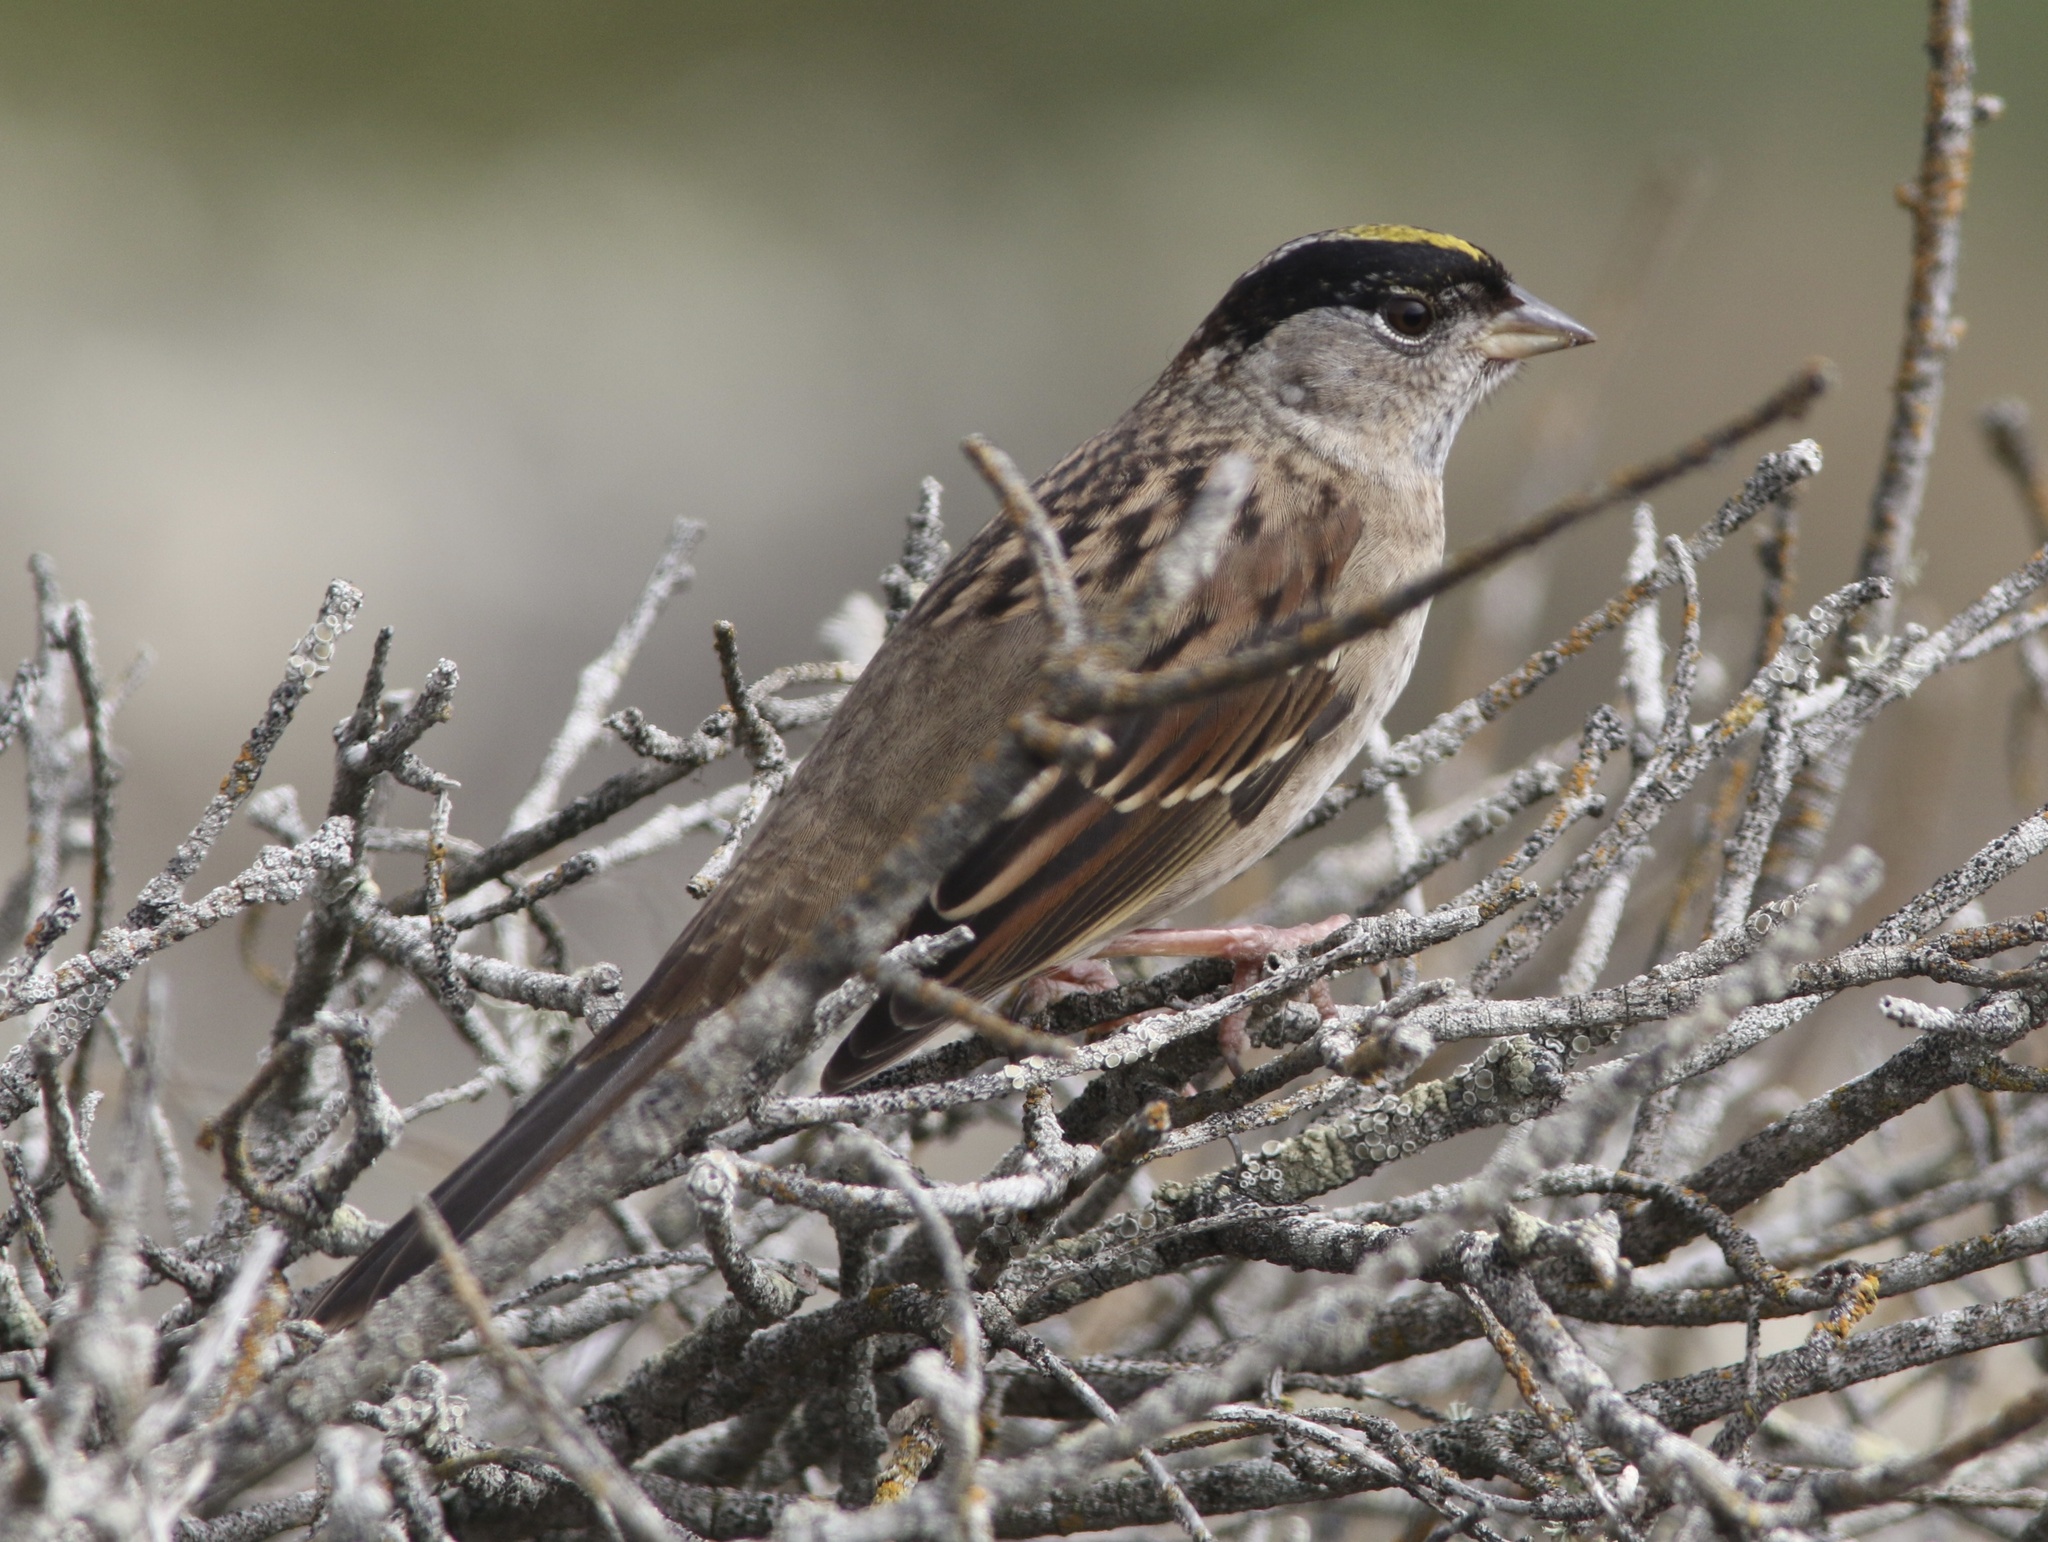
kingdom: Animalia
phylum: Chordata
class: Aves
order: Passeriformes
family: Passerellidae
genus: Zonotrichia
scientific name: Zonotrichia atricapilla
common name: Golden-crowned sparrow
